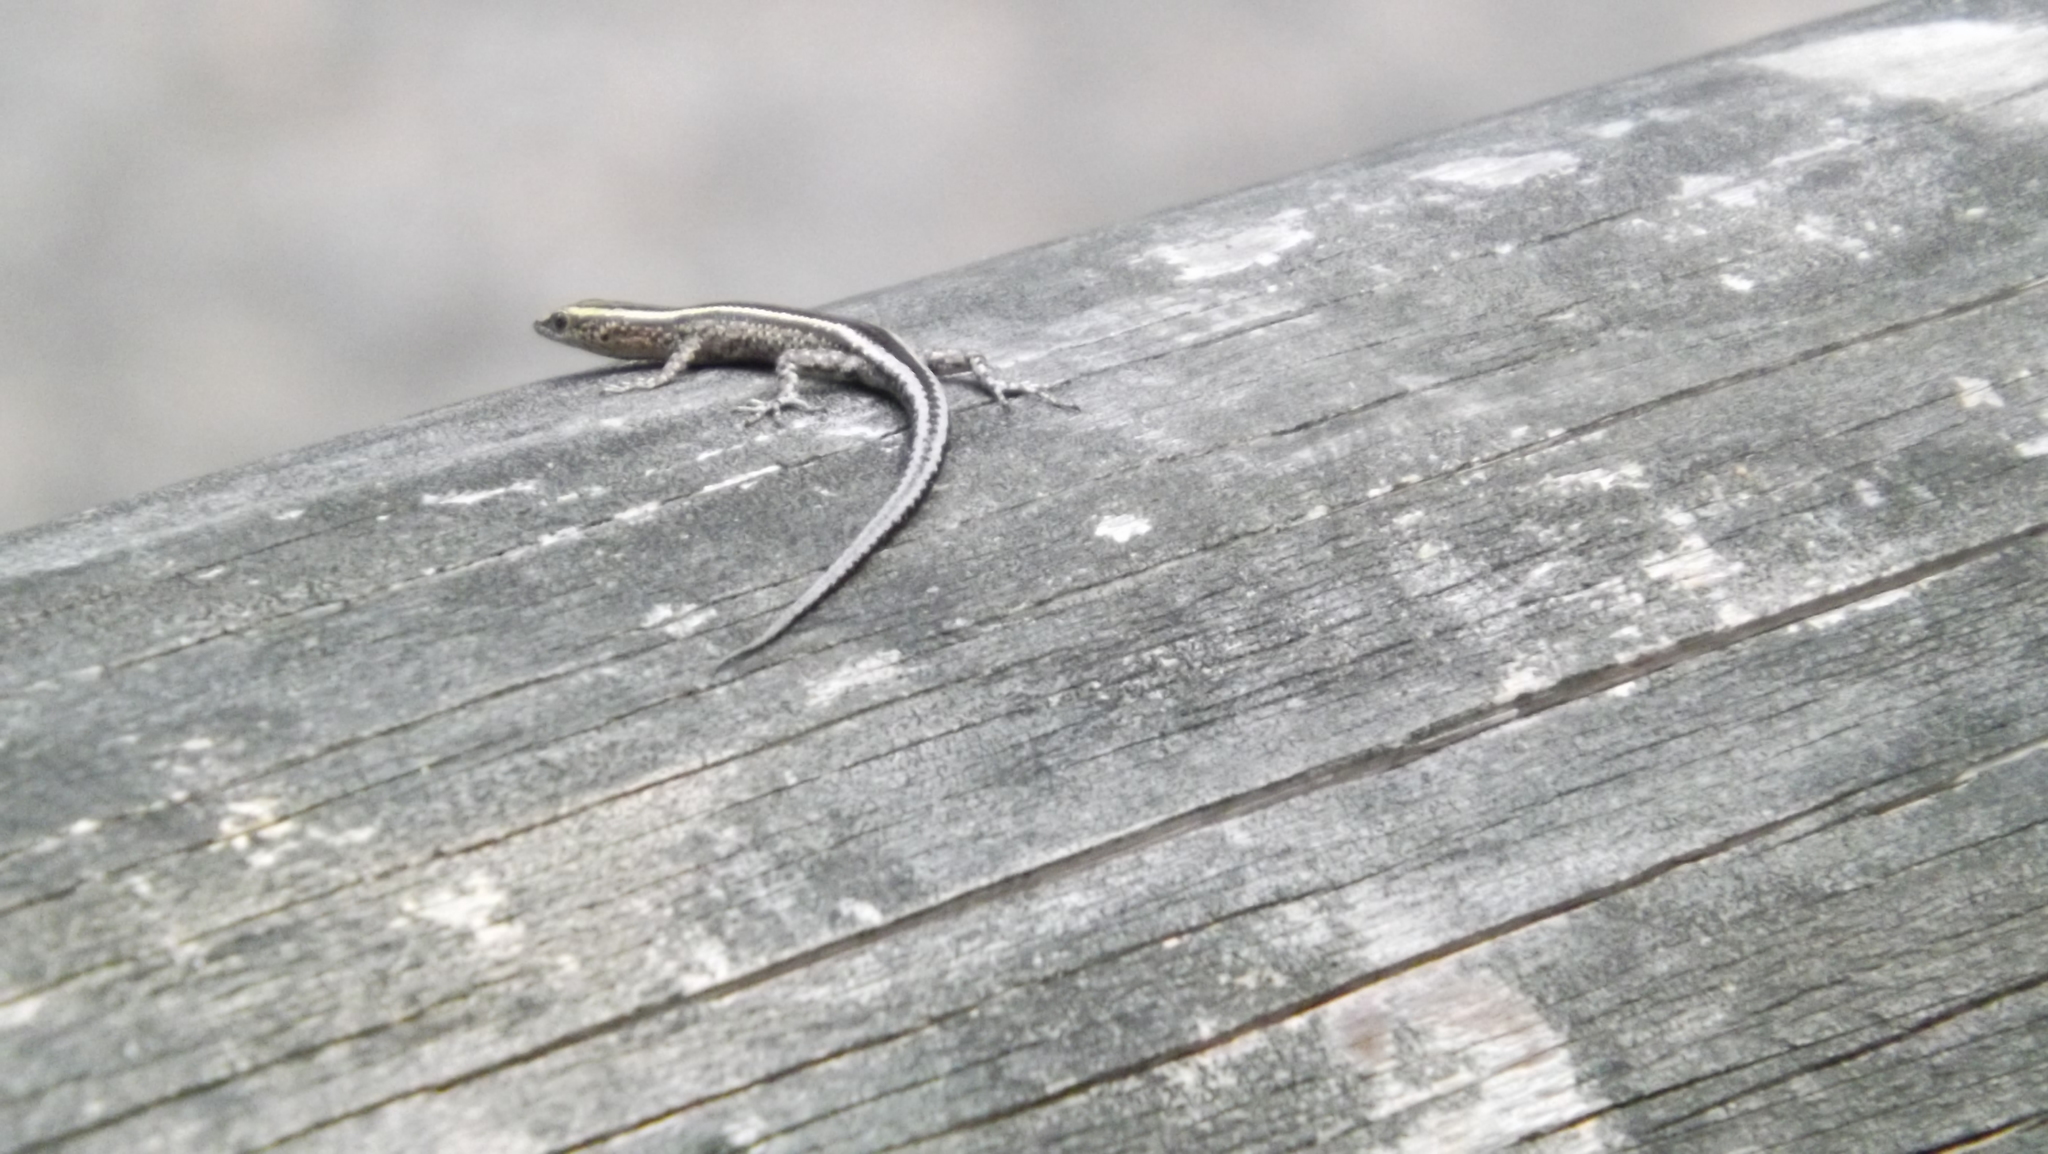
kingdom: Animalia
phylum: Chordata
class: Squamata
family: Scincidae
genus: Cryptoblepharus
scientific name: Cryptoblepharus pulcher
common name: Elegant snake-eyed skink
